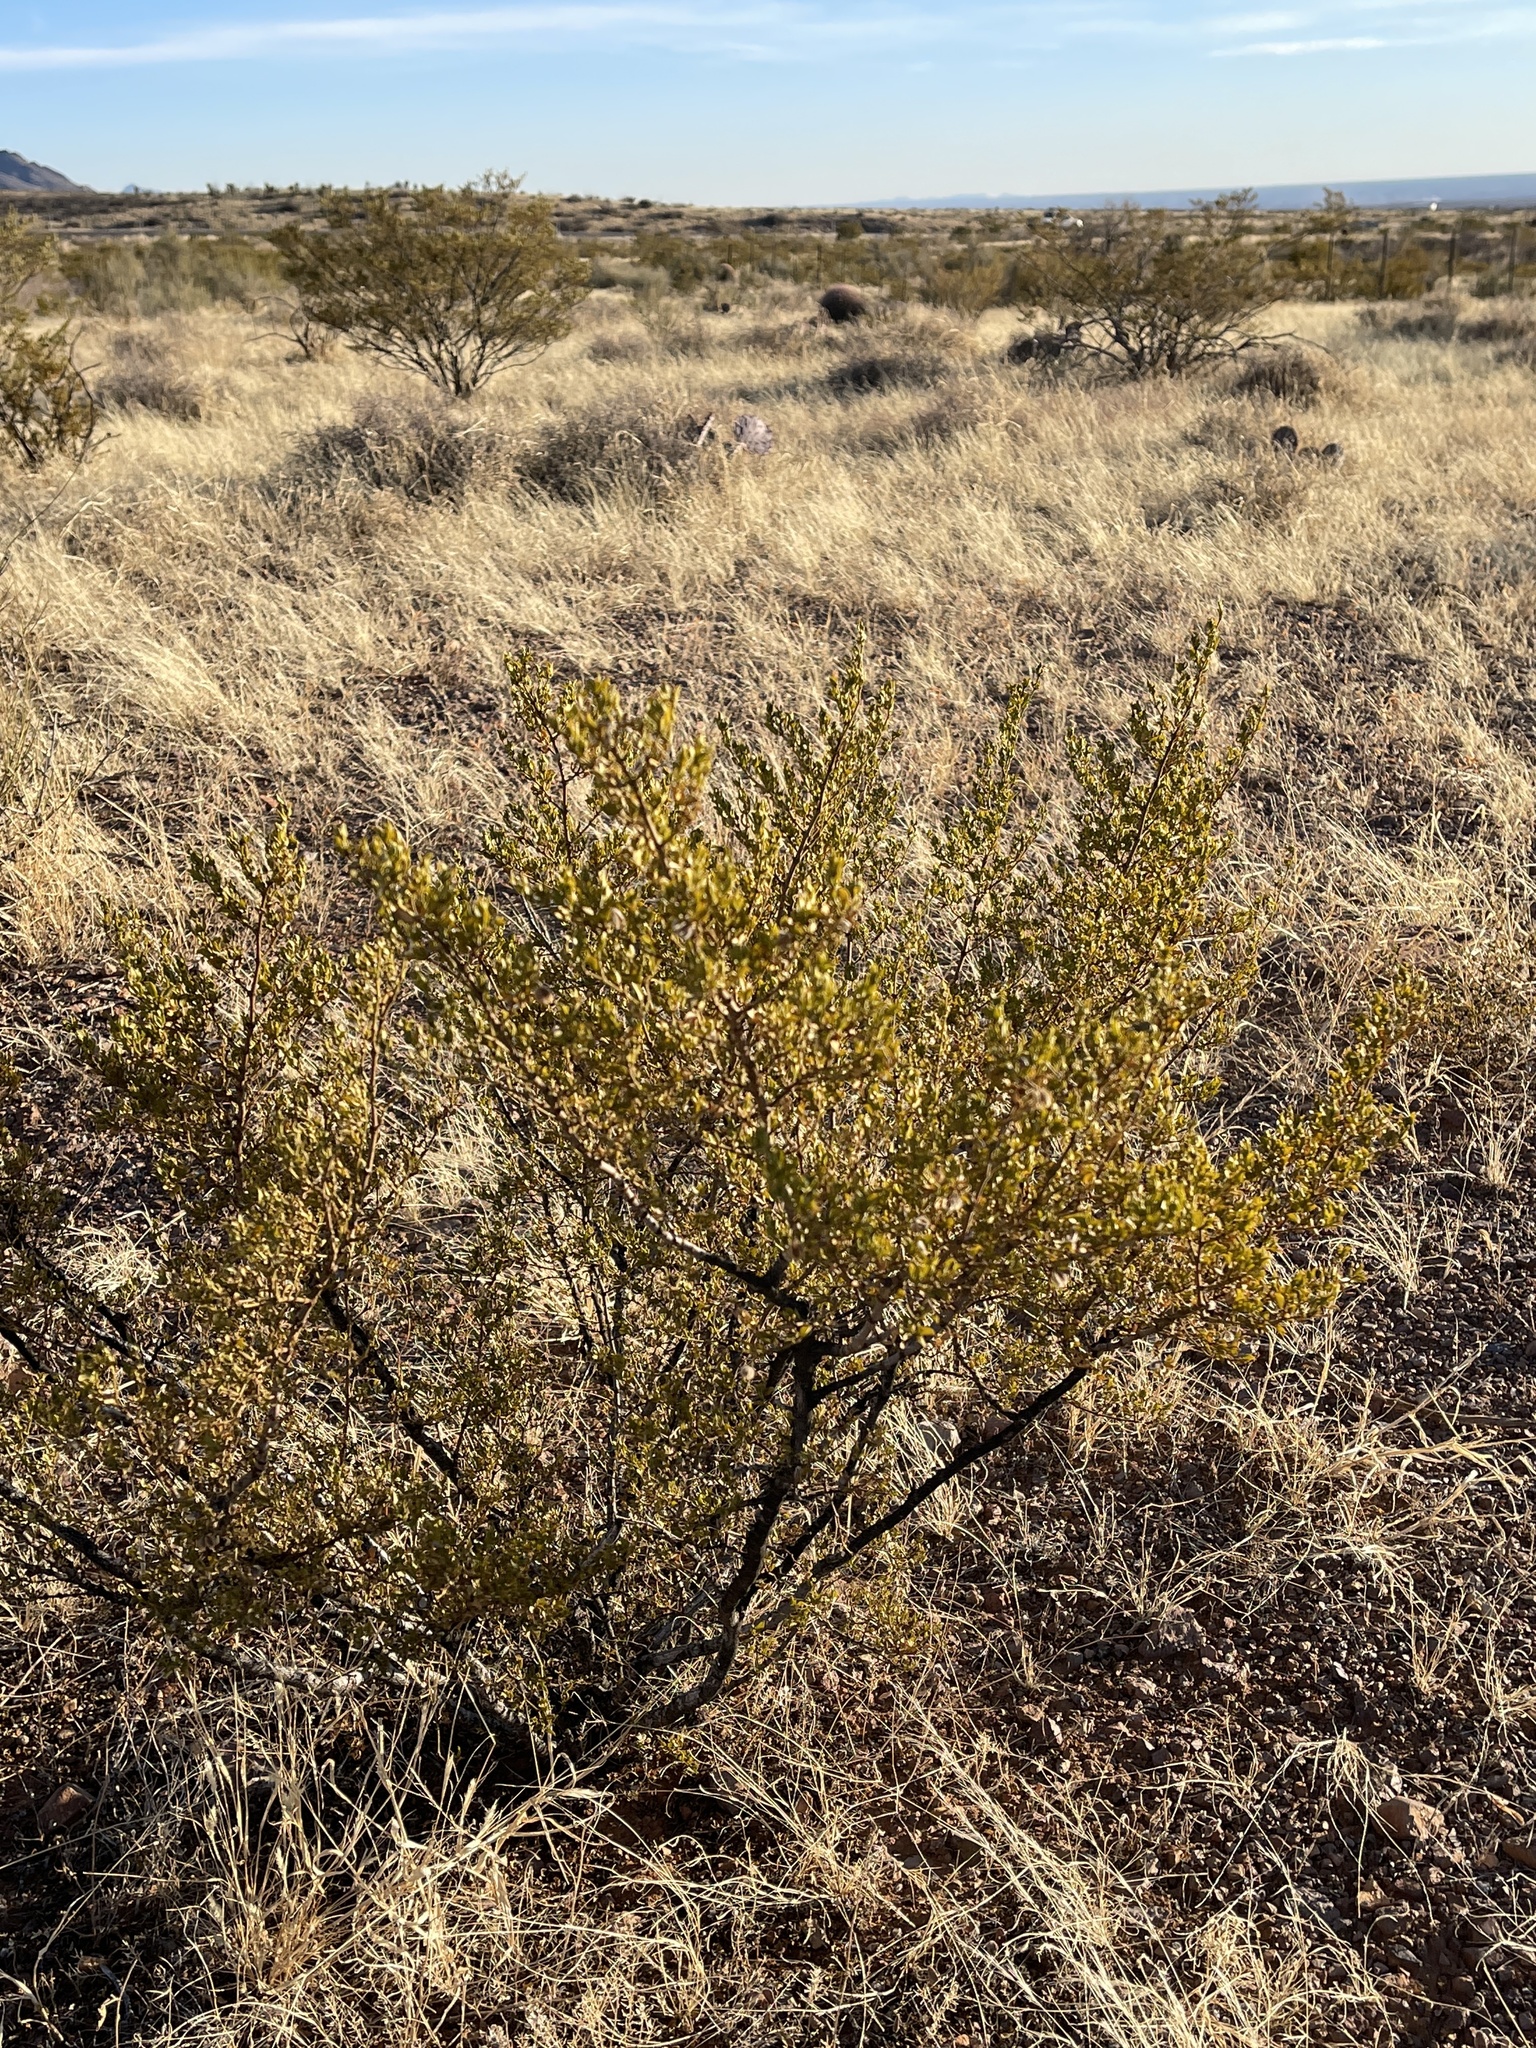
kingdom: Plantae
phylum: Tracheophyta
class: Magnoliopsida
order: Zygophyllales
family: Zygophyllaceae
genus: Larrea
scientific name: Larrea tridentata
